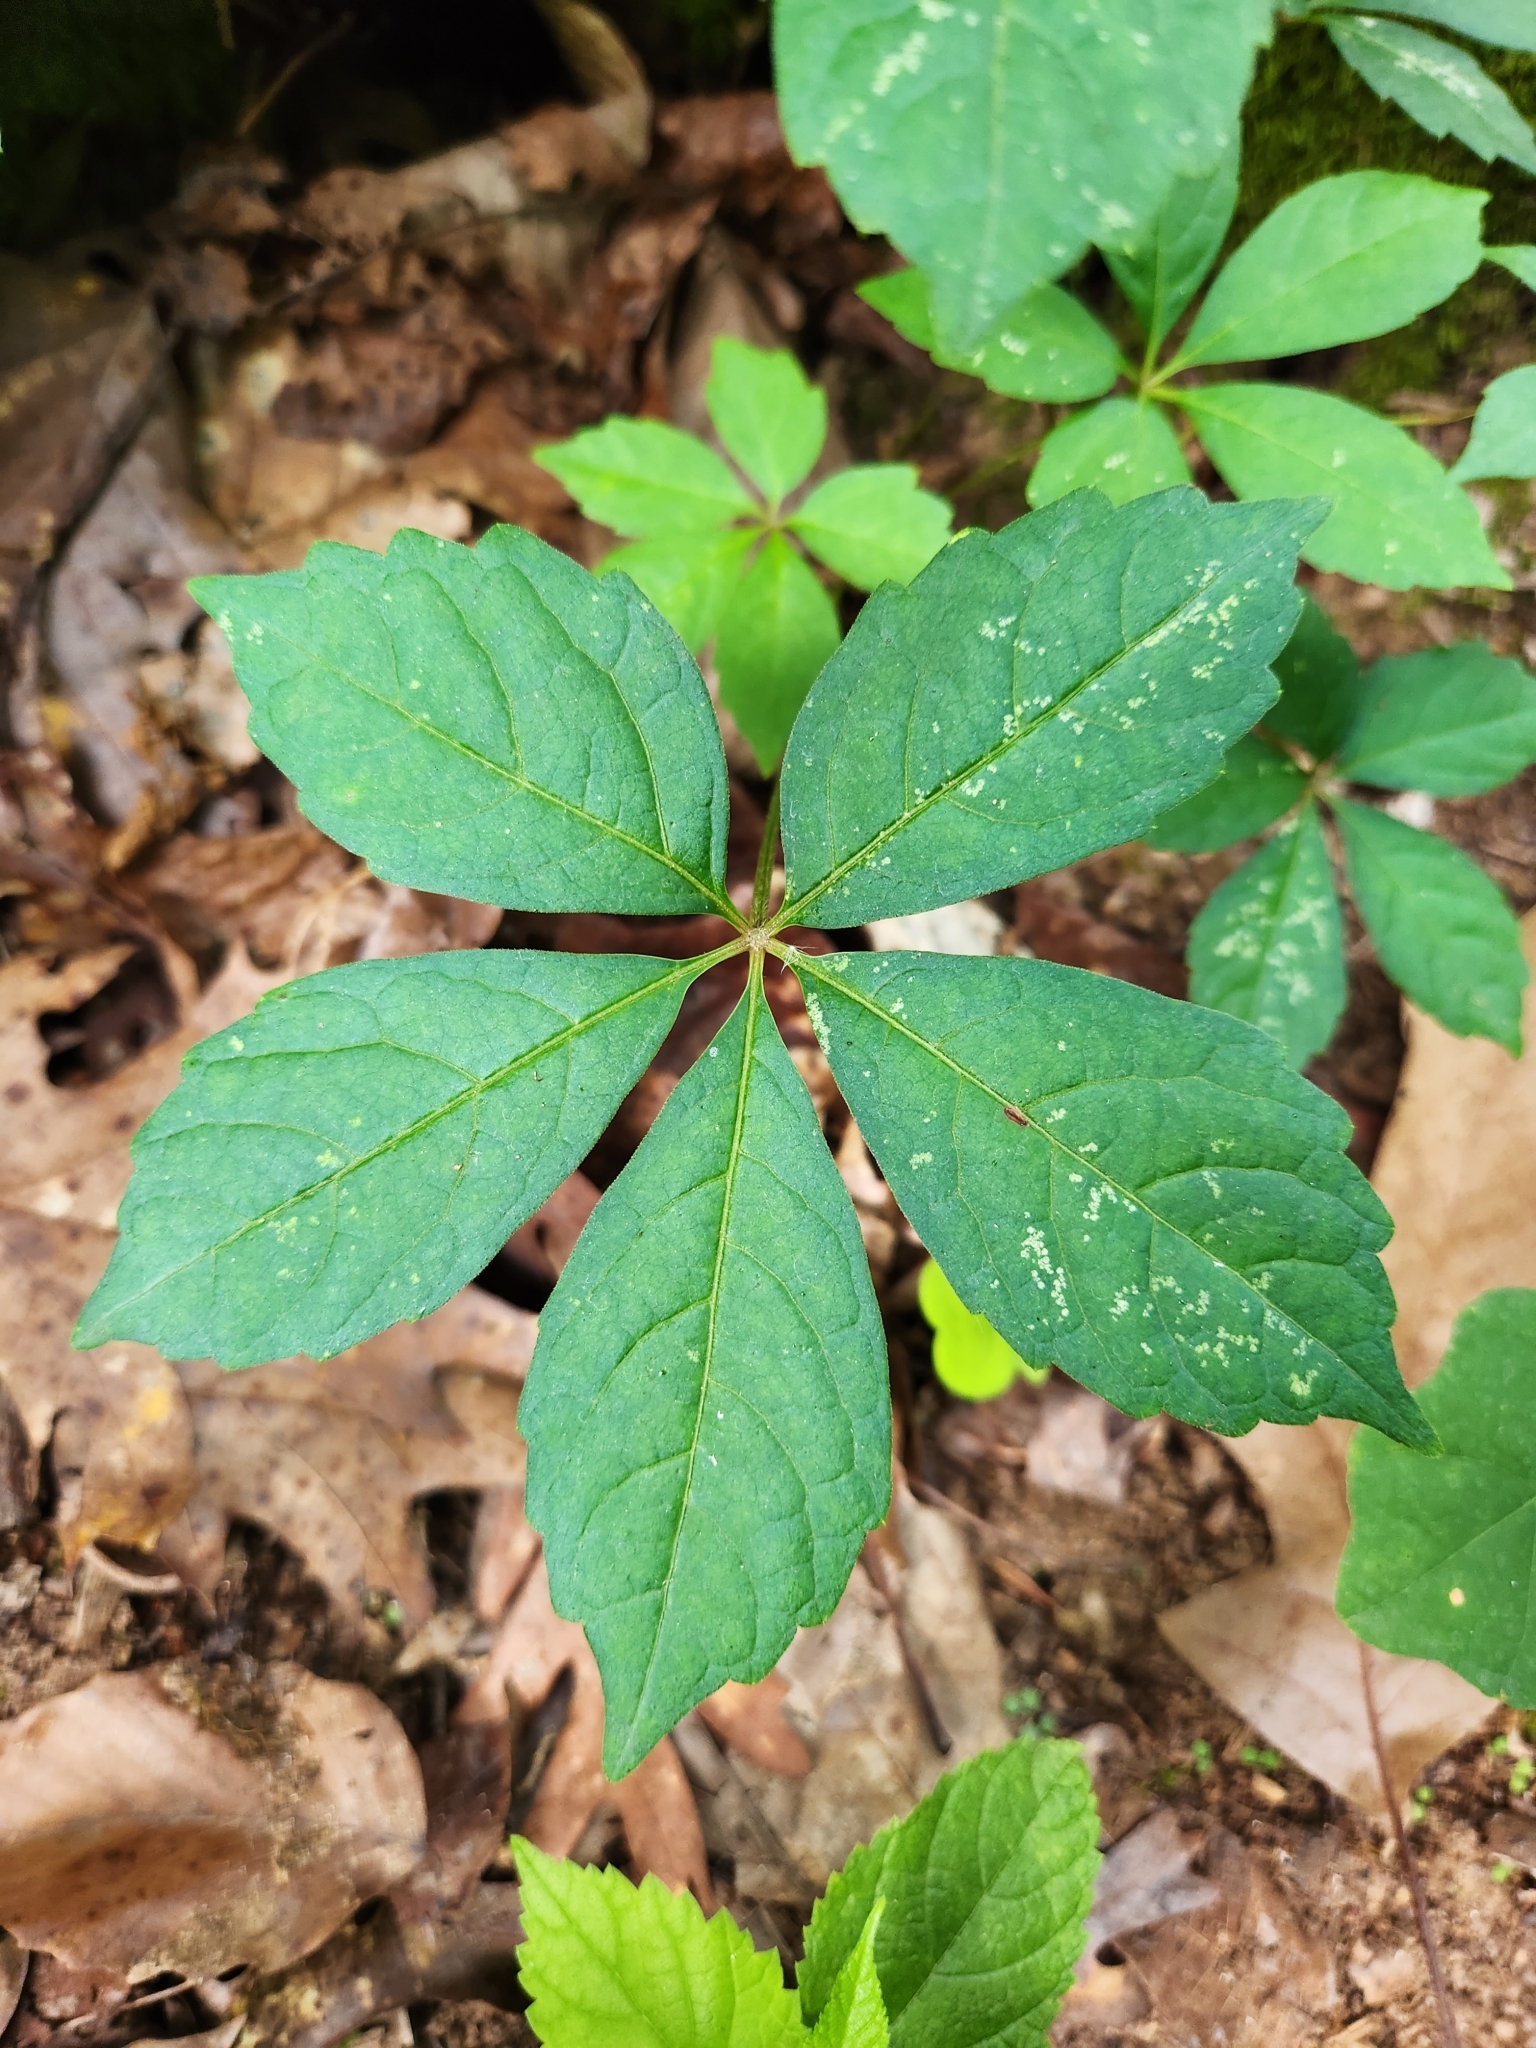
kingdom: Plantae
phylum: Tracheophyta
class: Magnoliopsida
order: Vitales
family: Vitaceae
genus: Parthenocissus
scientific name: Parthenocissus quinquefolia
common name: Virginia-creeper
